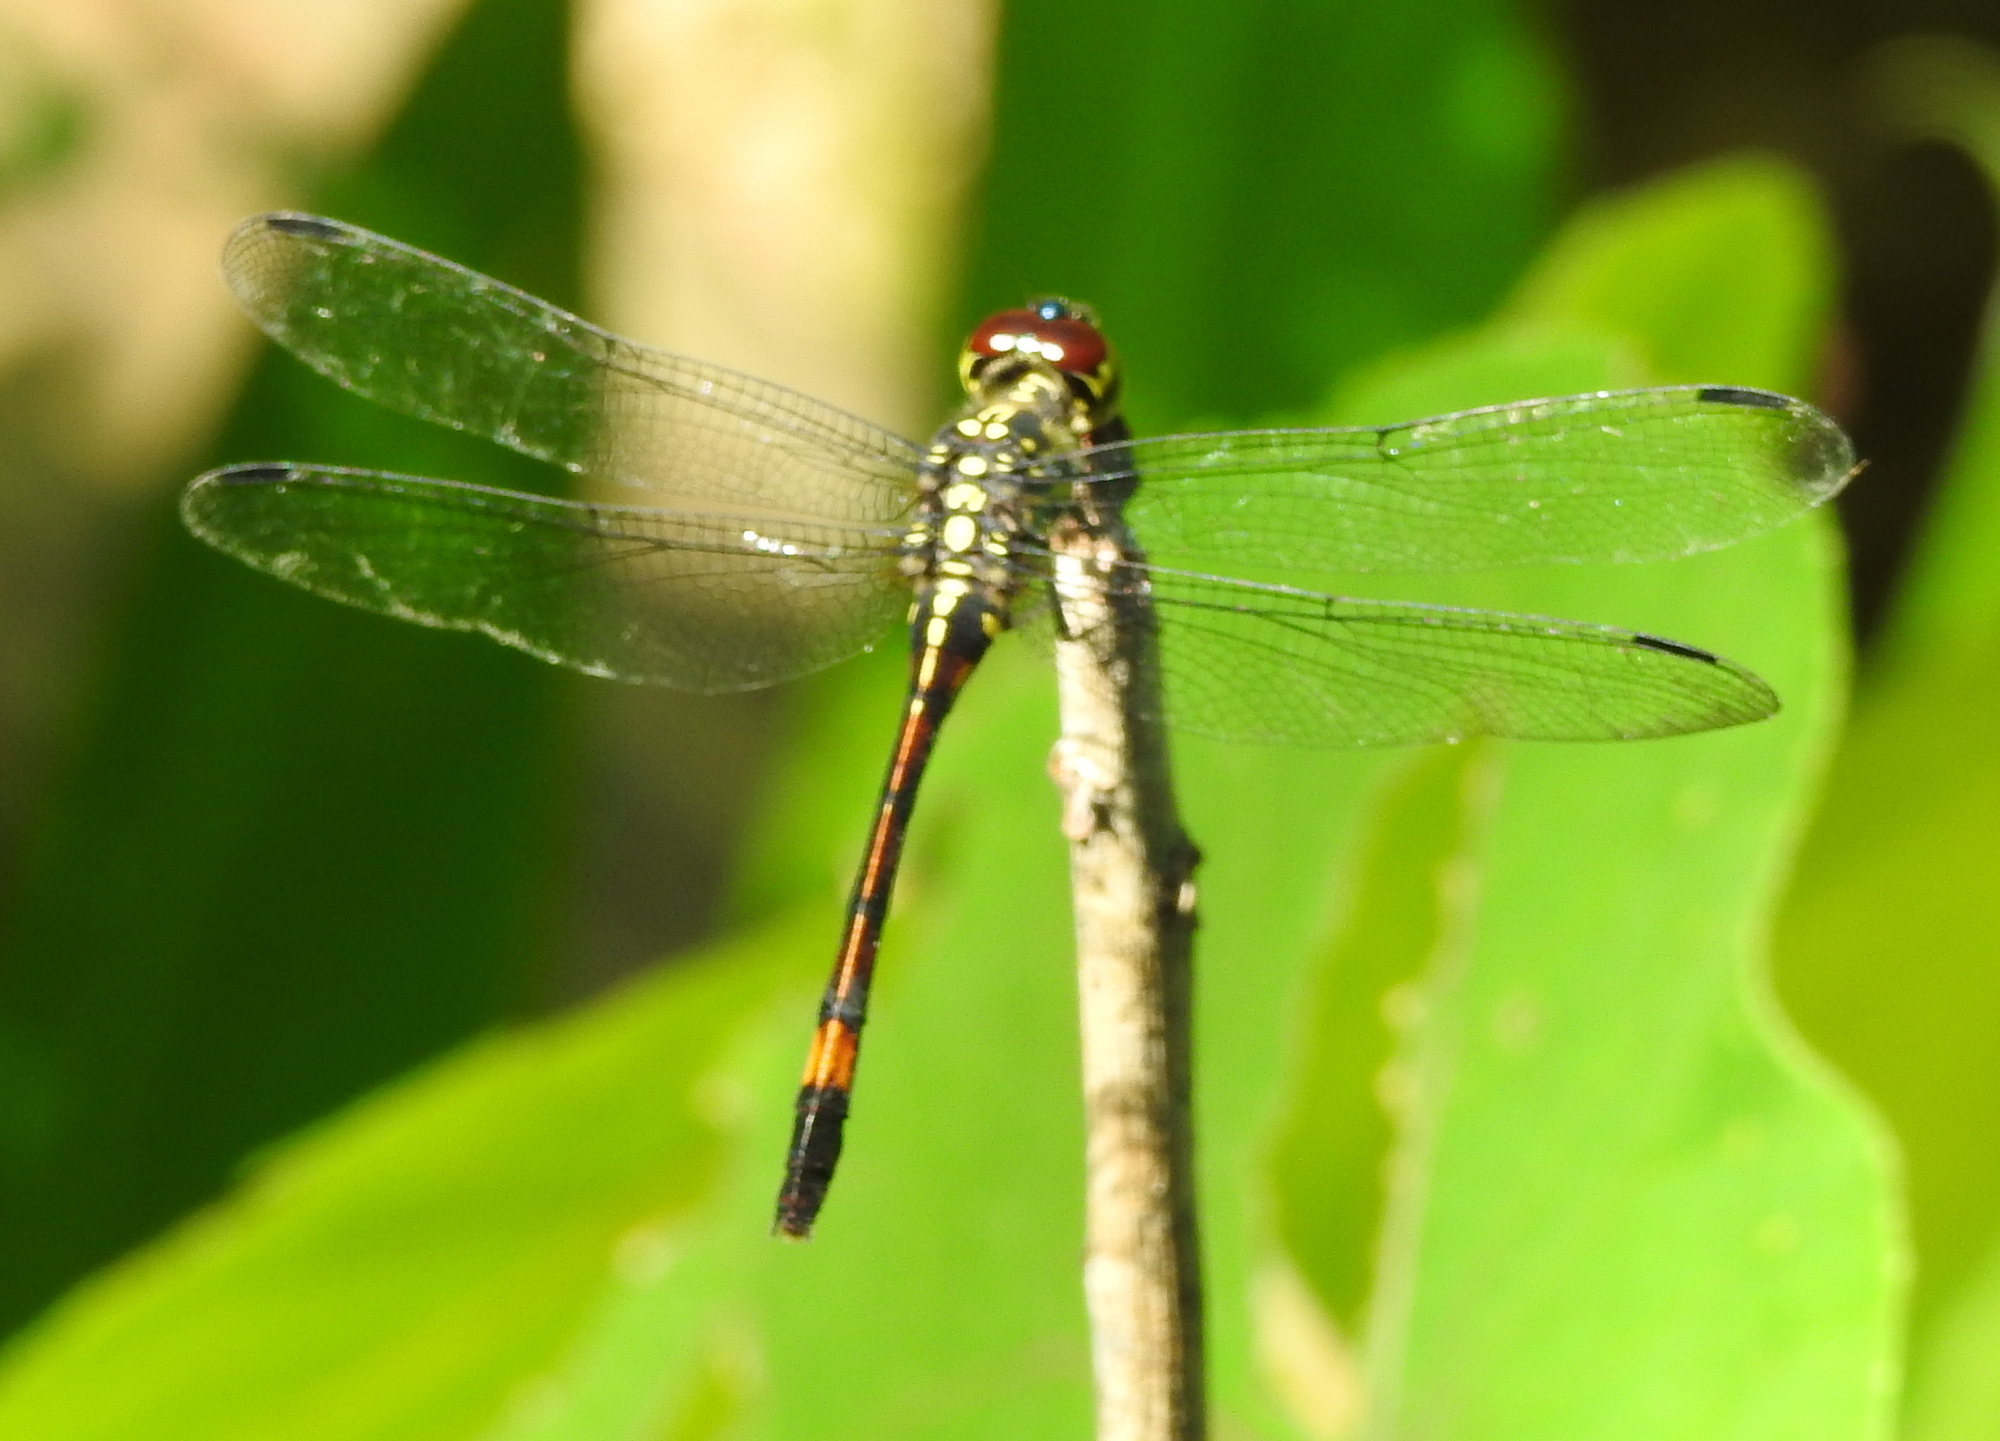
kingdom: Animalia
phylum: Arthropoda
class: Insecta
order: Odonata
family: Libellulidae
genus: Agrionoptera
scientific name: Agrionoptera insignis
